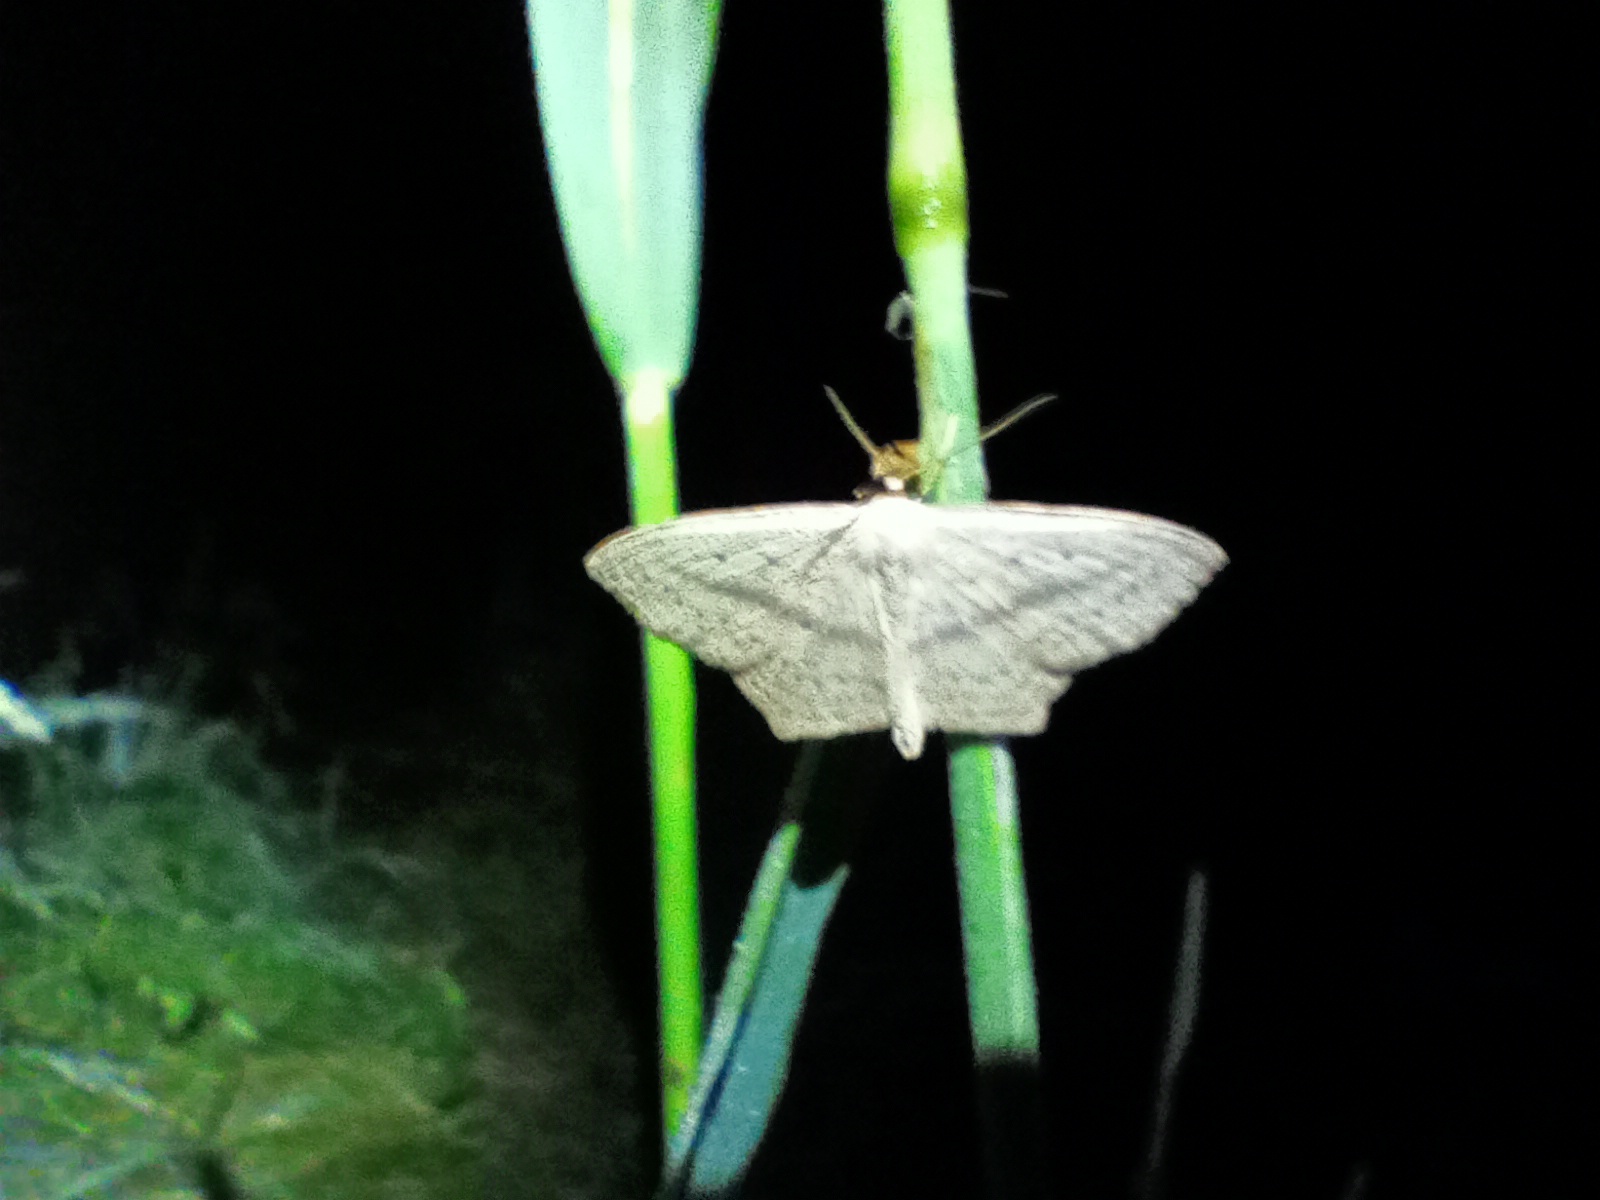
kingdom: Animalia
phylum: Arthropoda
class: Insecta
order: Lepidoptera
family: Geometridae
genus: Scopula
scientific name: Scopula flaccidaria
